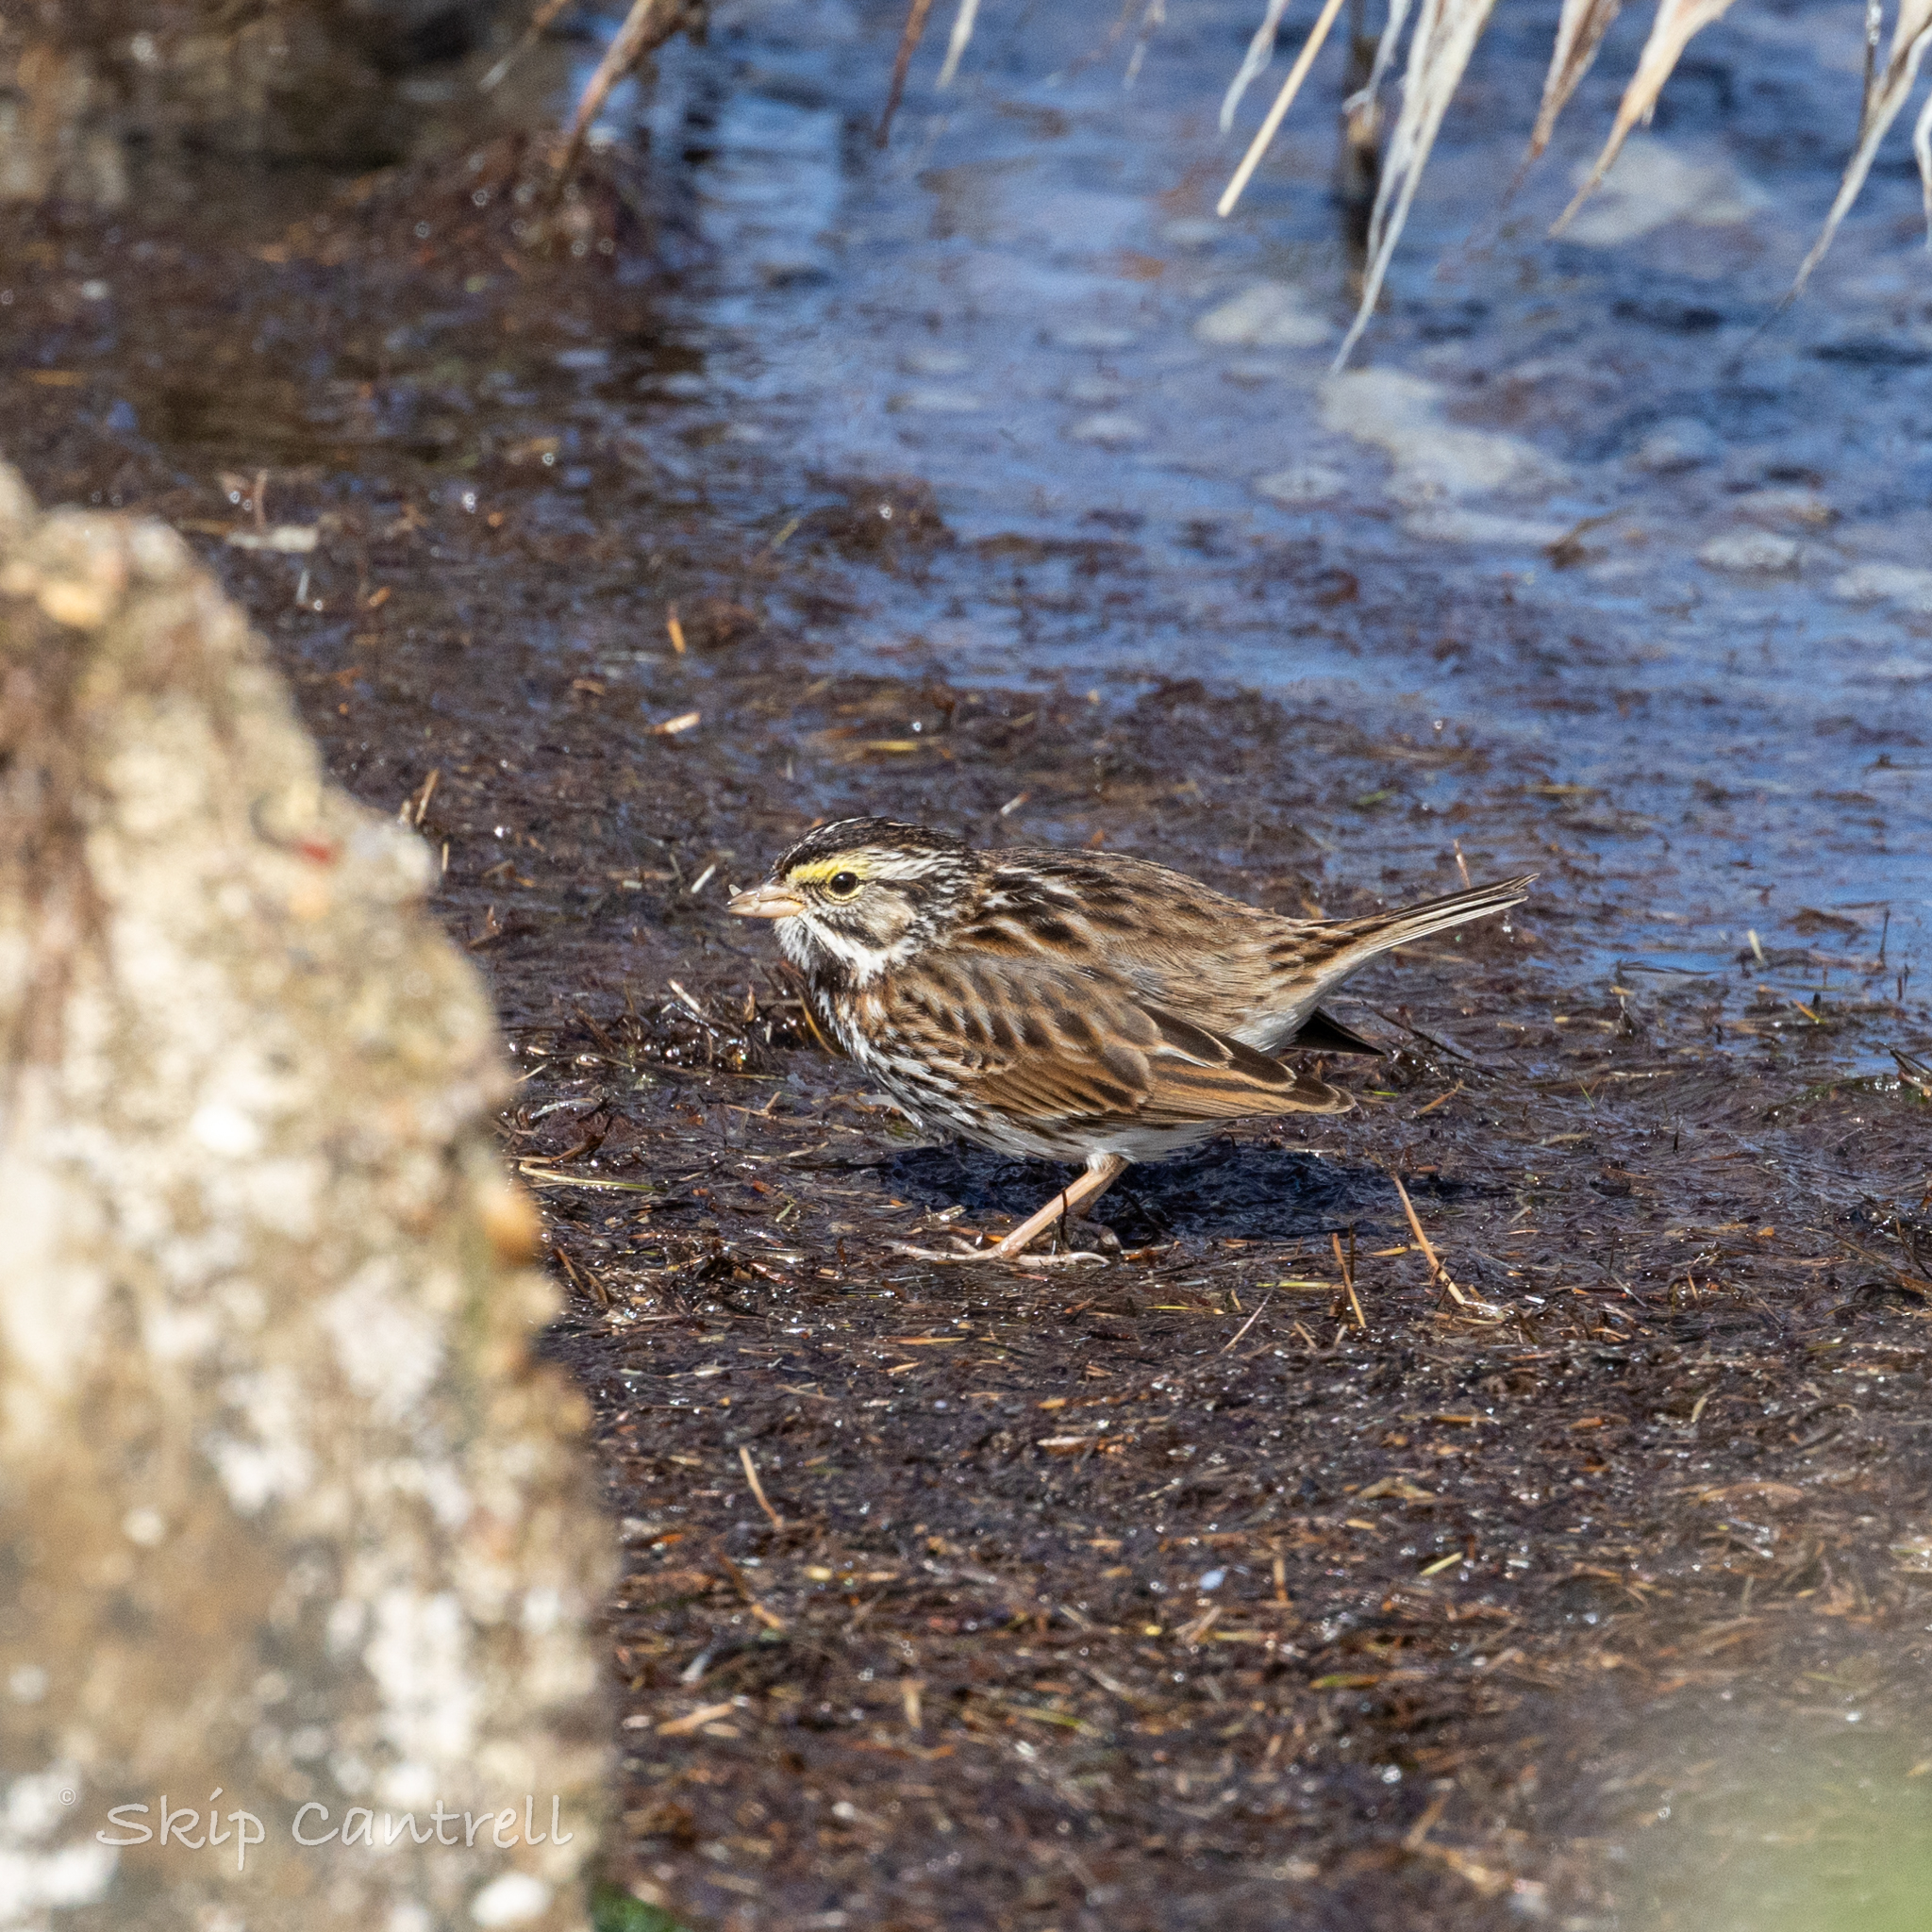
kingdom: Animalia
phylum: Chordata
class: Aves
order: Passeriformes
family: Passerellidae
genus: Passerculus
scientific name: Passerculus sandwichensis
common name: Savannah sparrow
